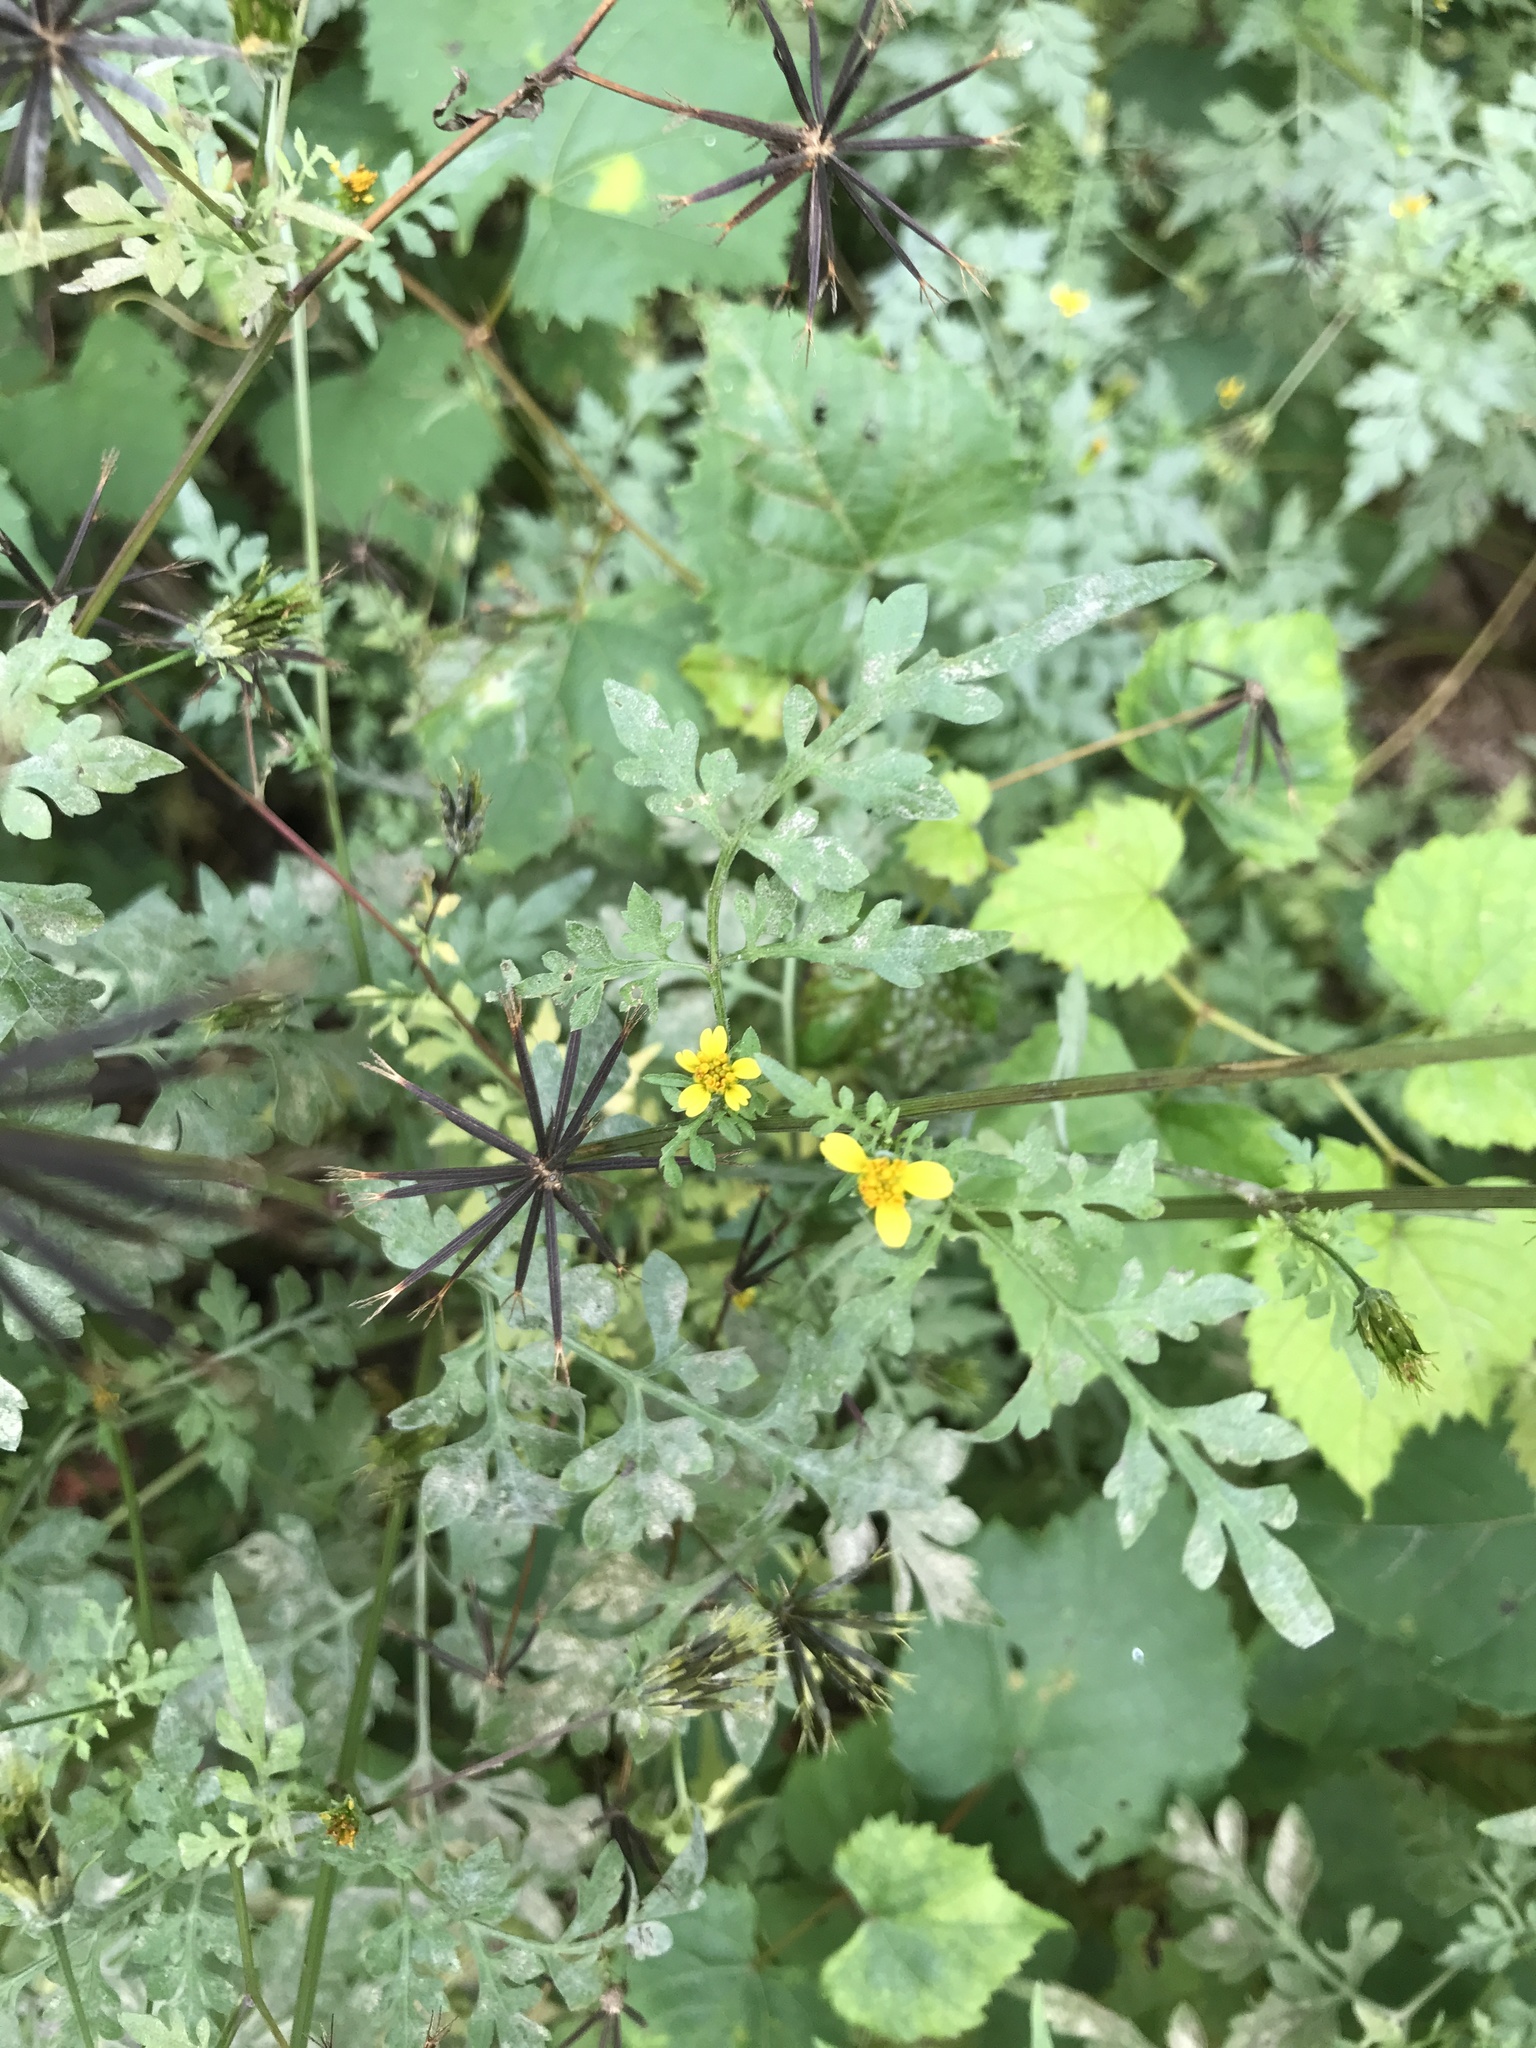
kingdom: Plantae
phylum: Tracheophyta
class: Magnoliopsida
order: Asterales
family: Asteraceae
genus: Bidens
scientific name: Bidens bipinnata
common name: Spanish-needles
